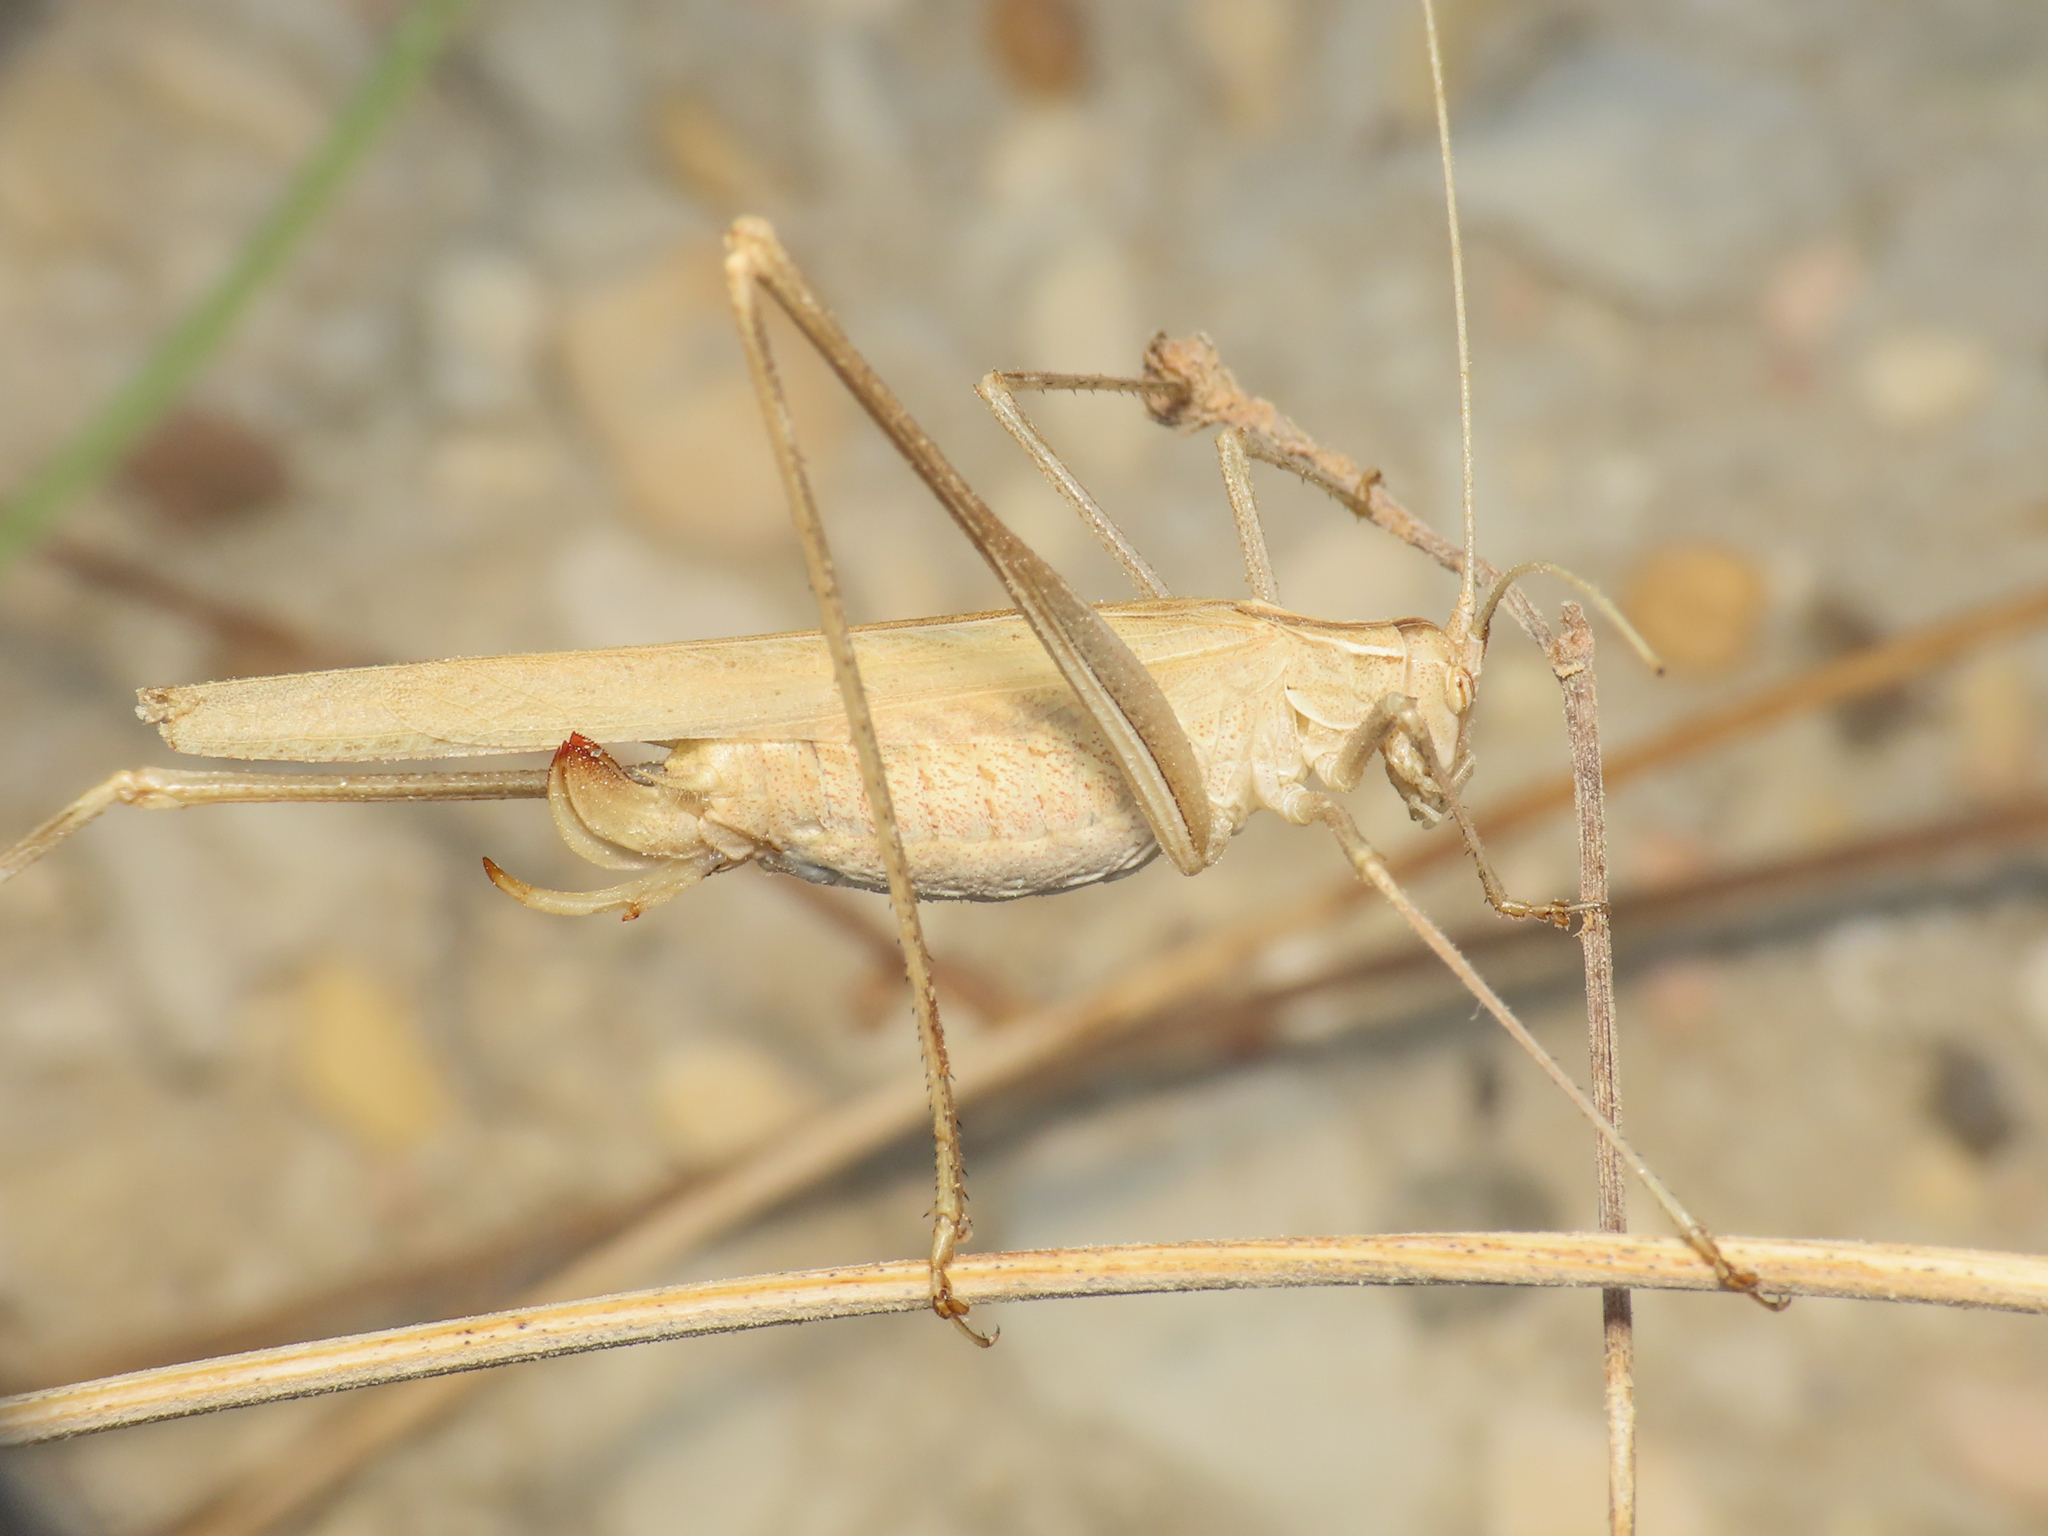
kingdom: Animalia
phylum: Arthropoda
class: Insecta
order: Orthoptera
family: Tettigoniidae
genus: Tylopsis
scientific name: Tylopsis lilifolia
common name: Lily bush-cricket
